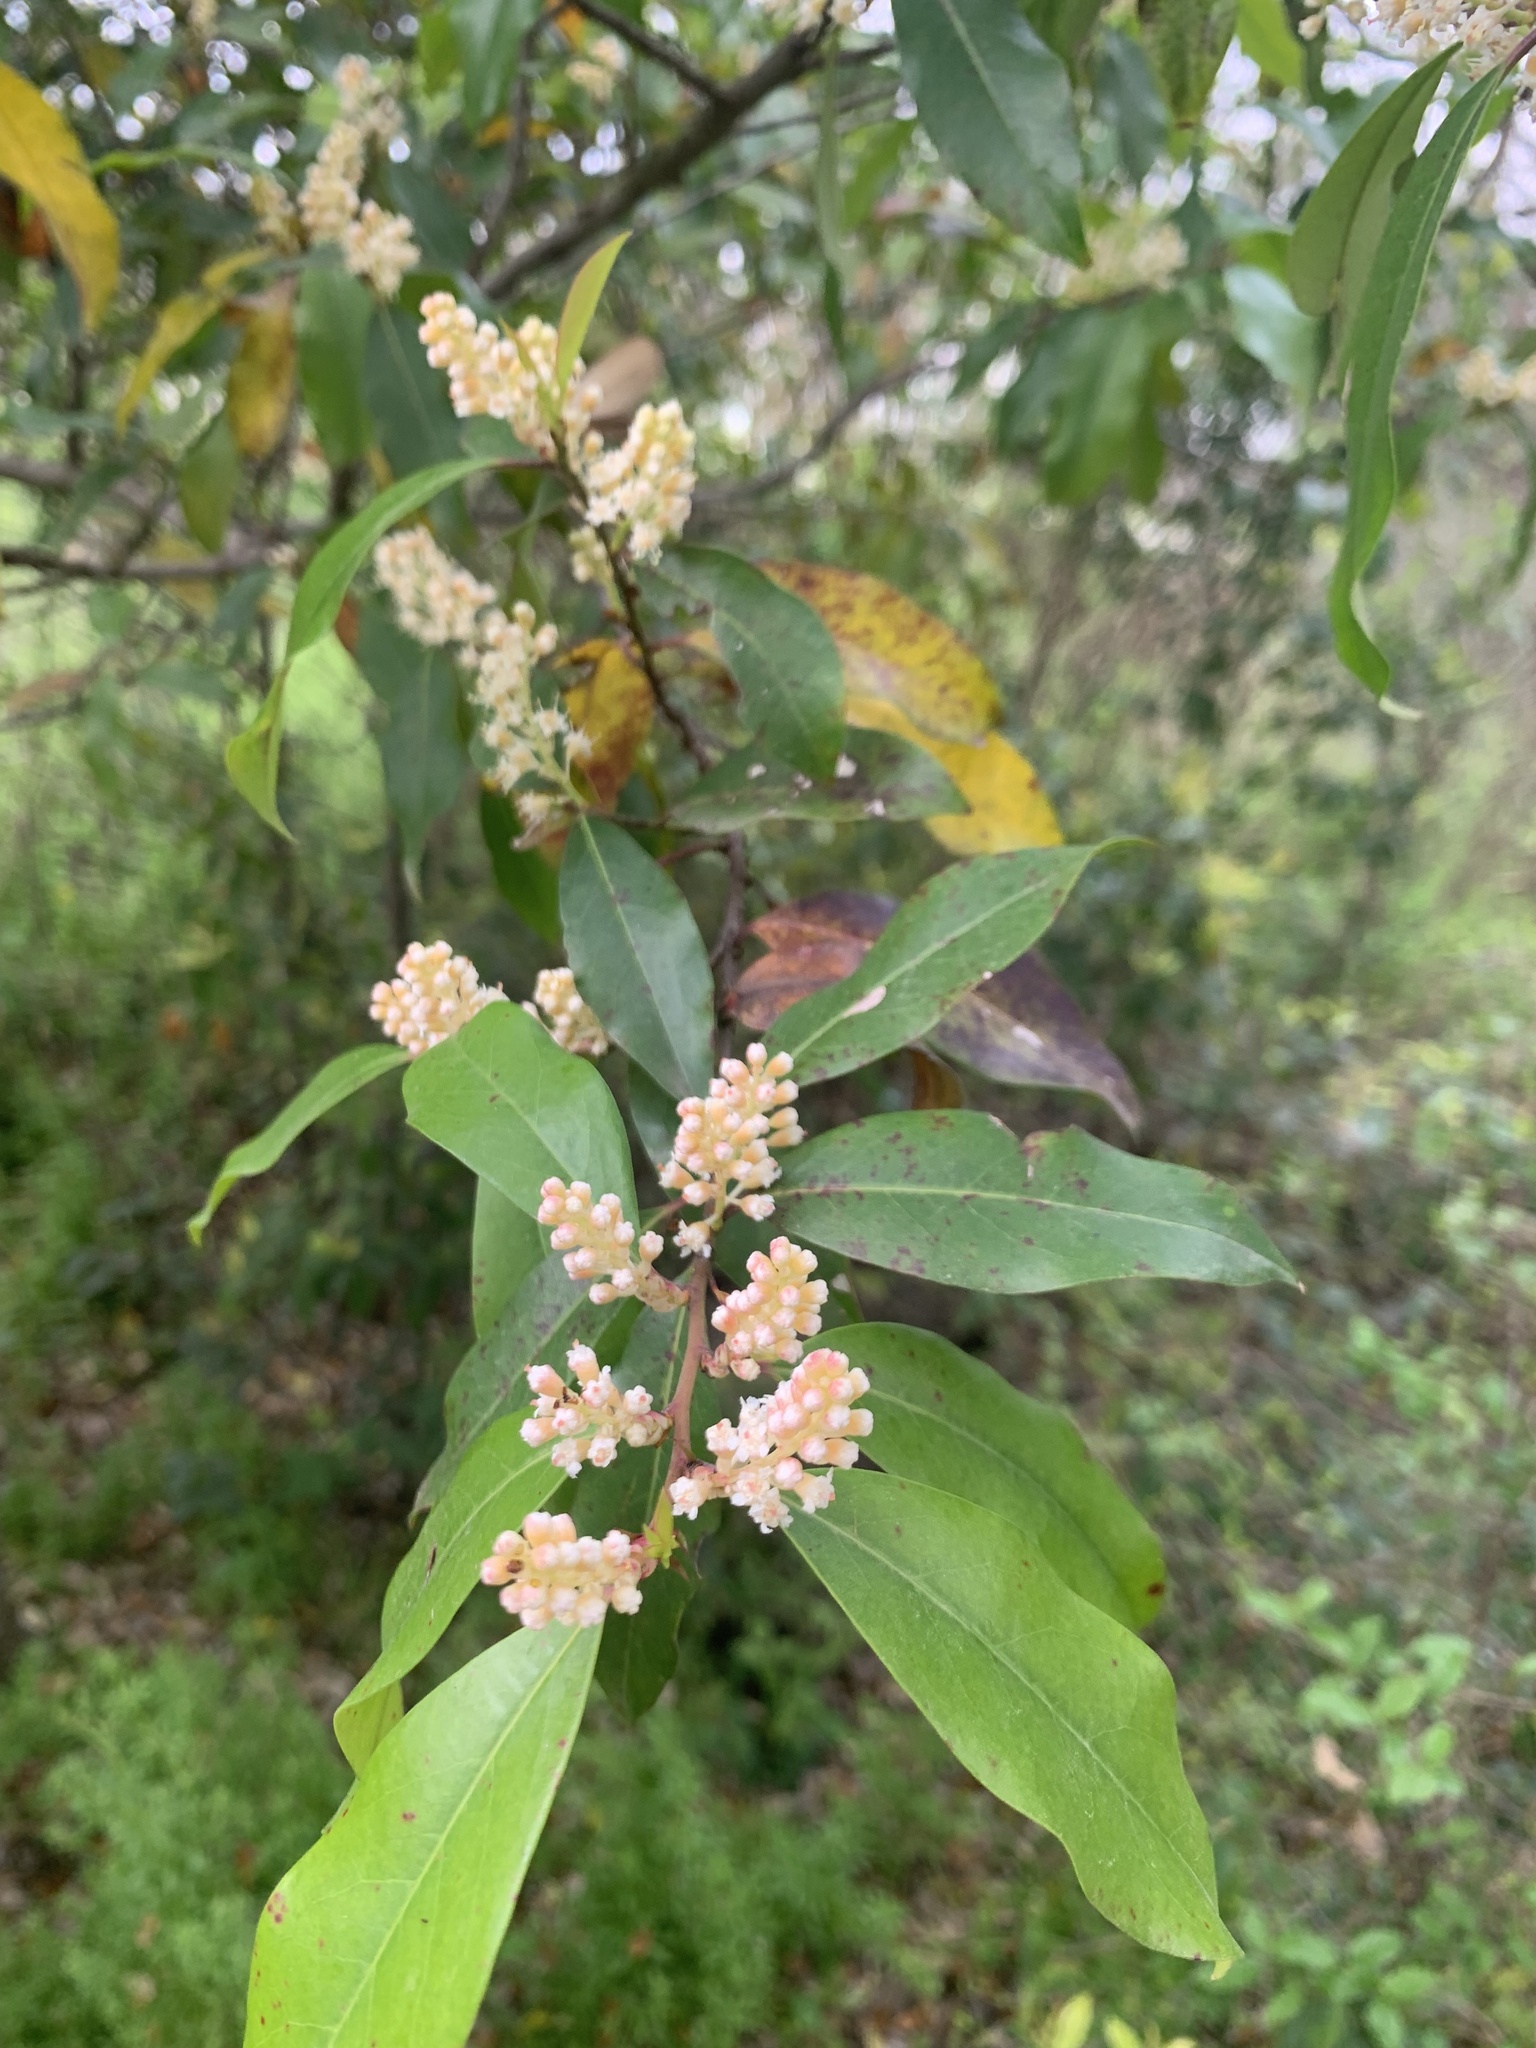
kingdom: Plantae
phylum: Tracheophyta
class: Magnoliopsida
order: Rosales
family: Rosaceae
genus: Prunus
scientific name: Prunus caroliniana
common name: Carolina laurel cherry
